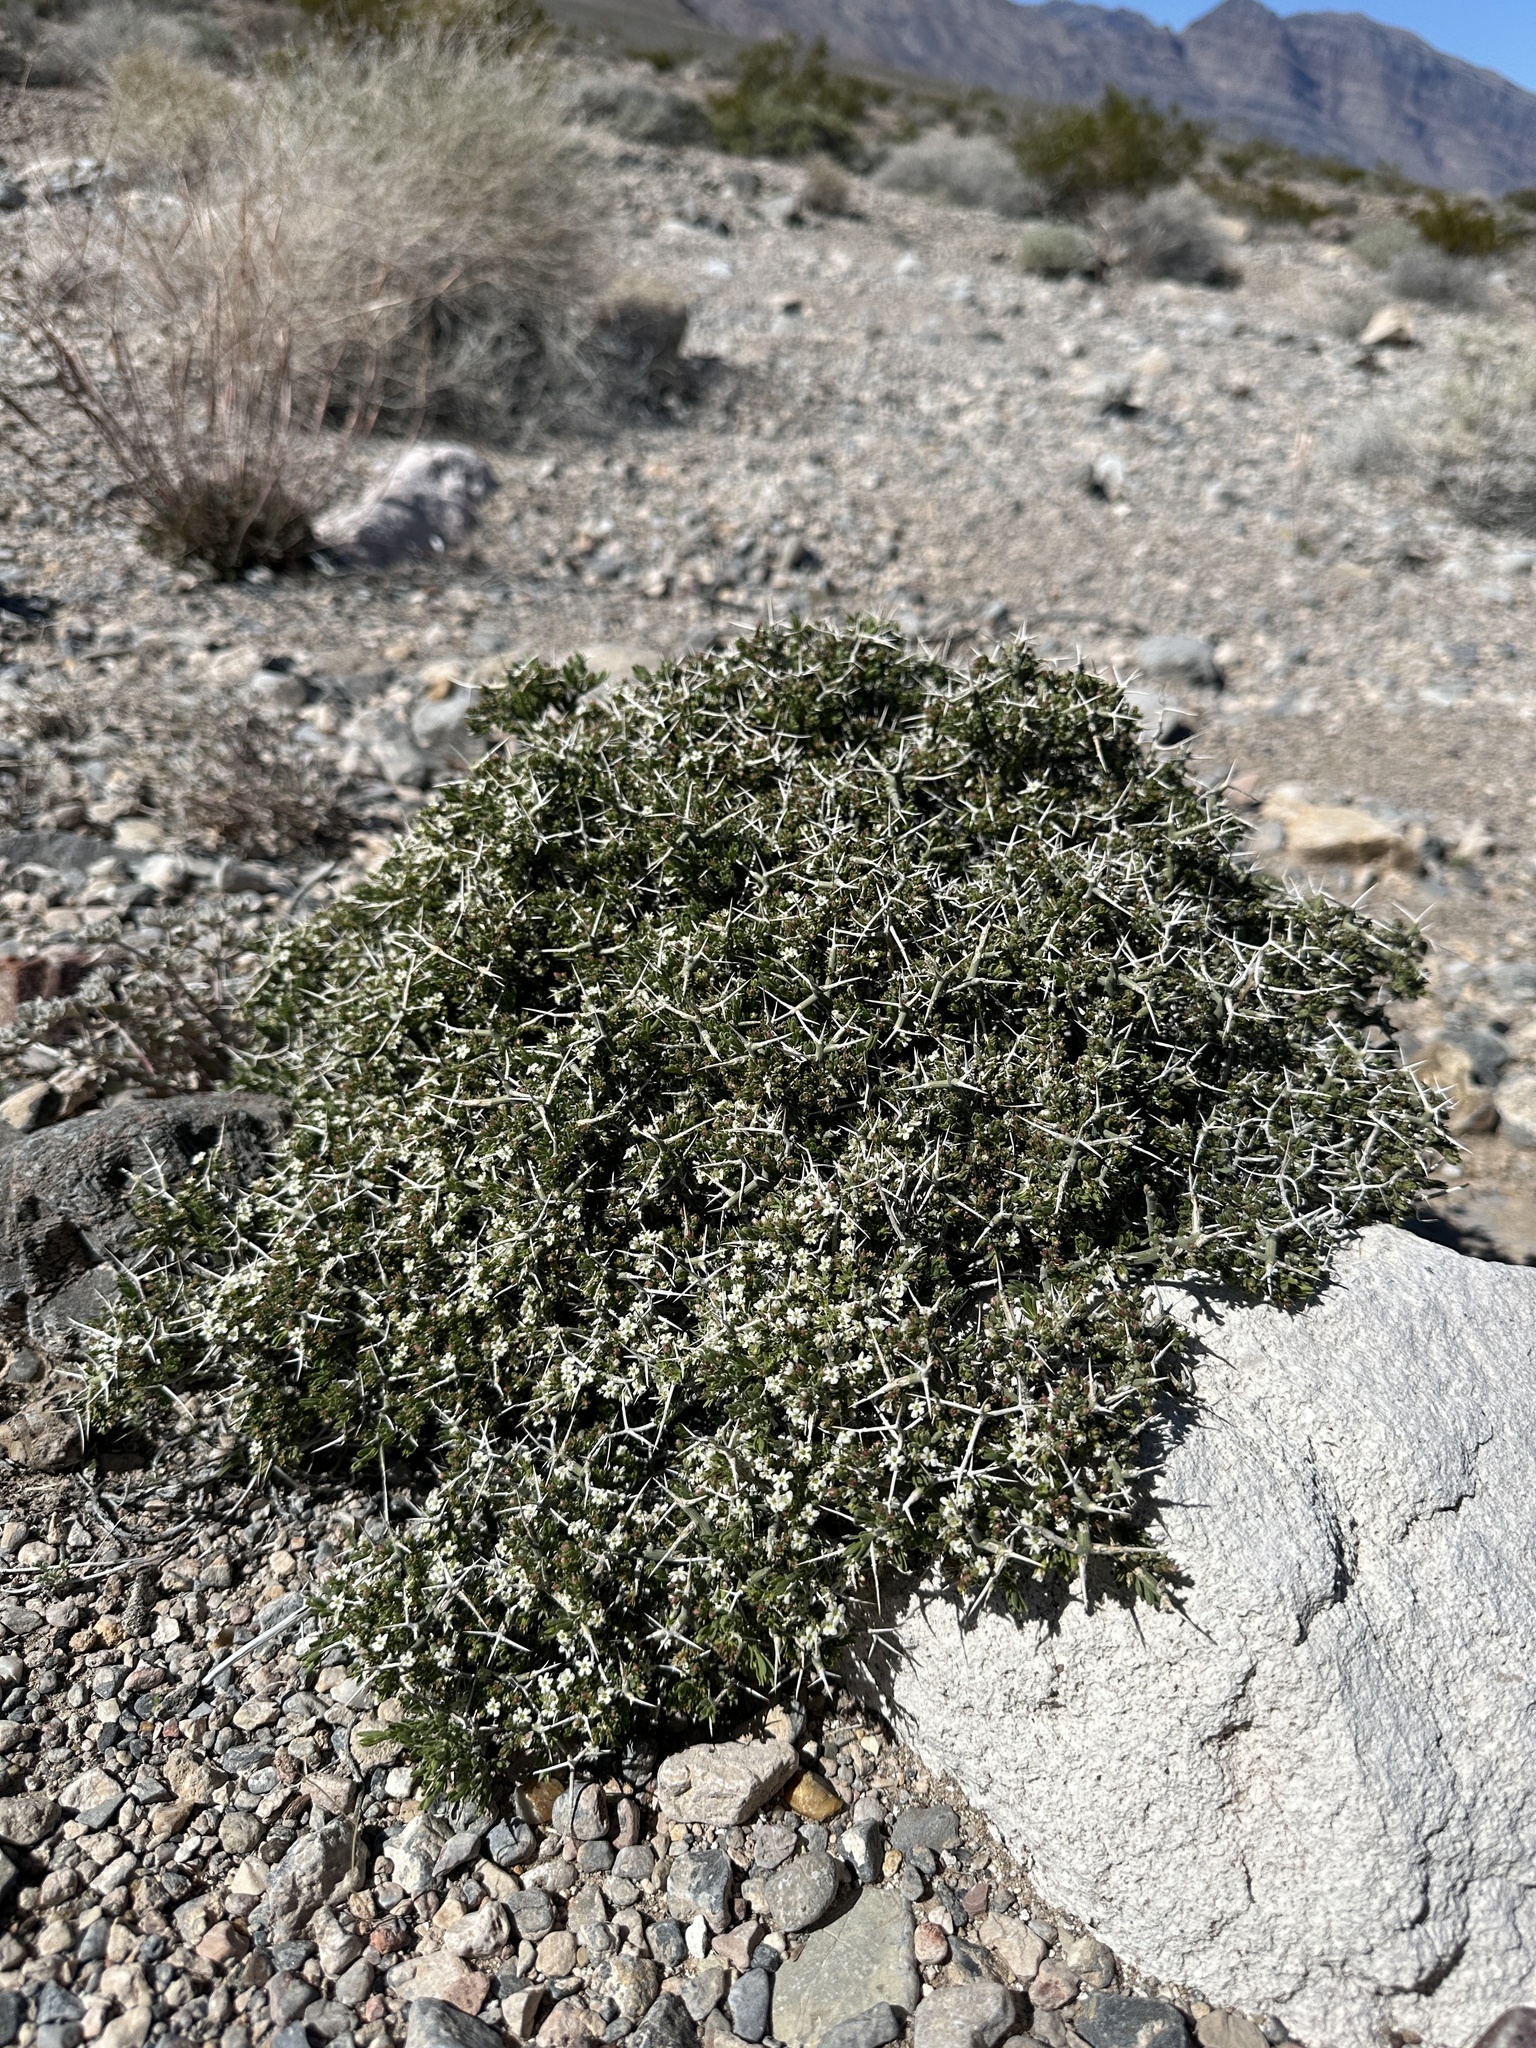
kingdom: Plantae
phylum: Tracheophyta
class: Magnoliopsida
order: Lamiales
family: Oleaceae
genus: Menodora
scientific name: Menodora spinescens
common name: Spiny menodora
